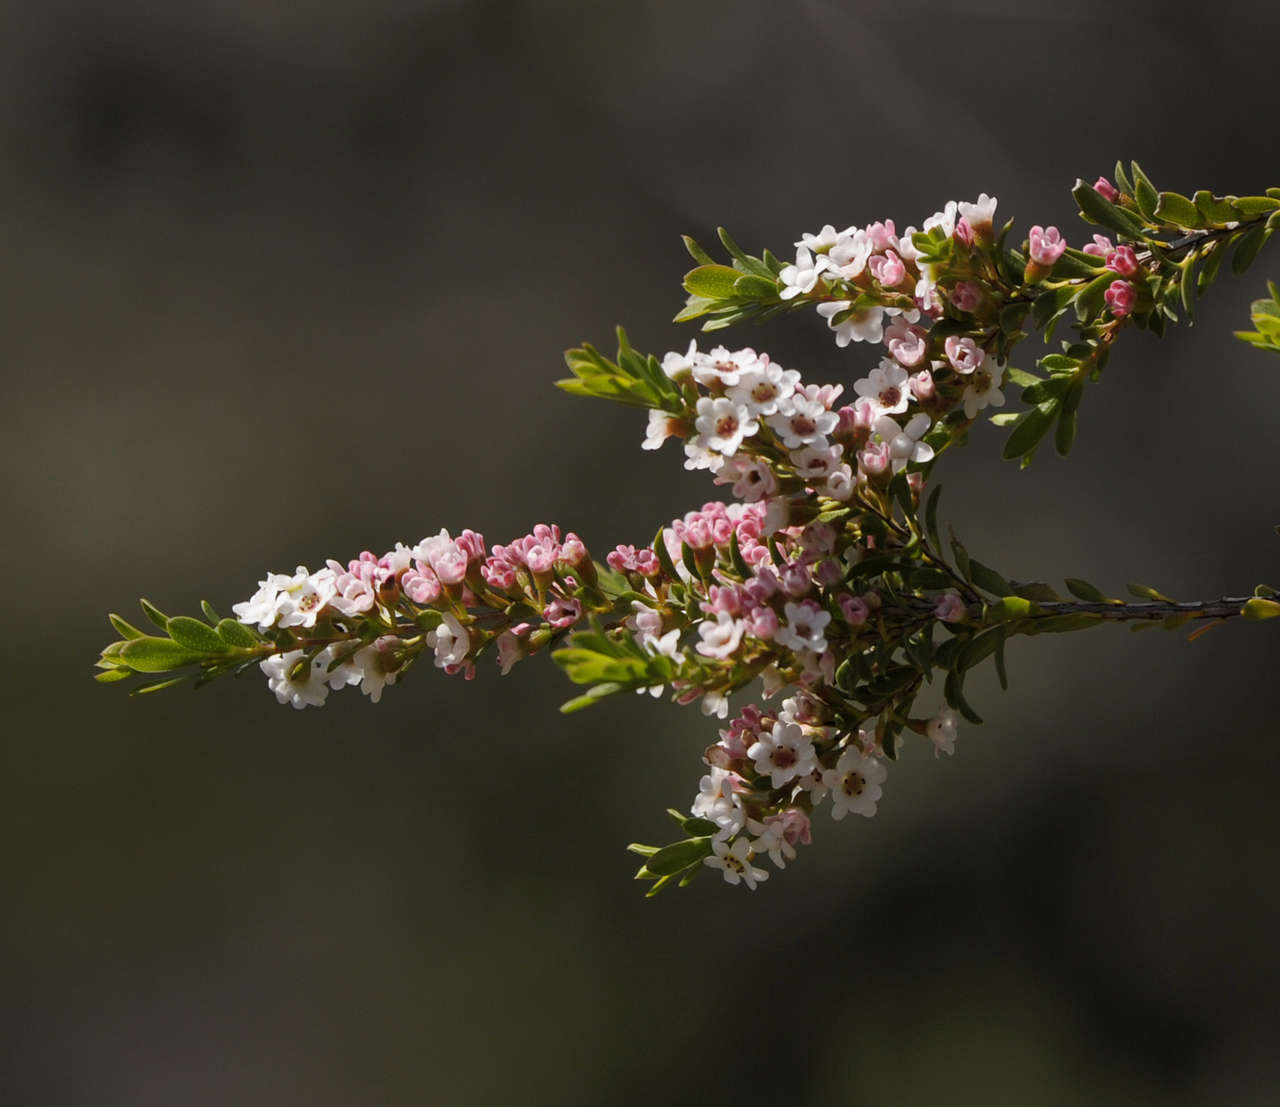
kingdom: Plantae
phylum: Tracheophyta
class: Magnoliopsida
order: Myrtales
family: Myrtaceae
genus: Thryptomene
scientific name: Thryptomene calycina
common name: Grampians thryptomene
